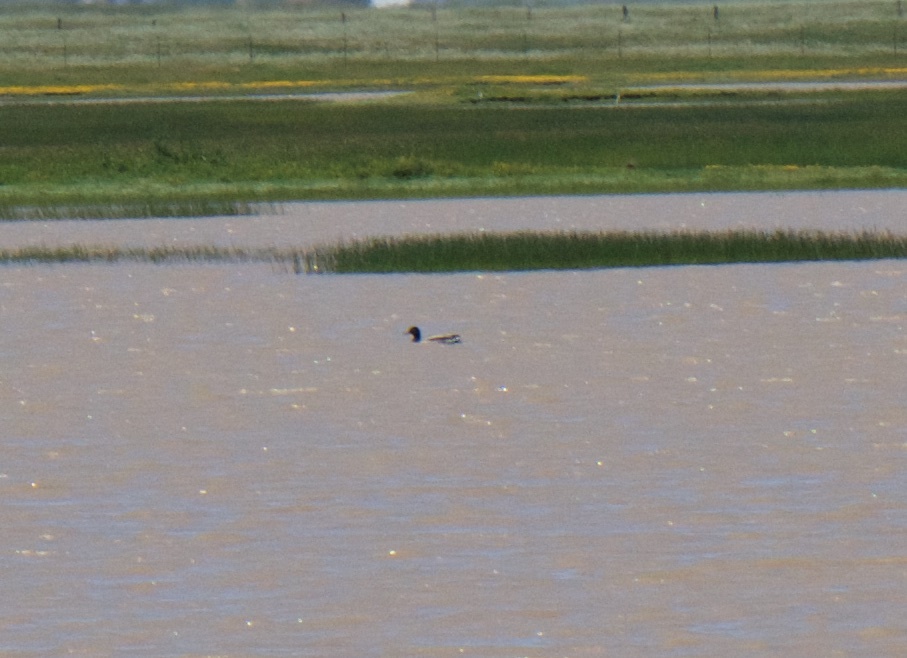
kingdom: Animalia
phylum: Chordata
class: Aves
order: Anseriformes
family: Anatidae
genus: Anas
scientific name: Anas platyrhynchos
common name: Mallard
